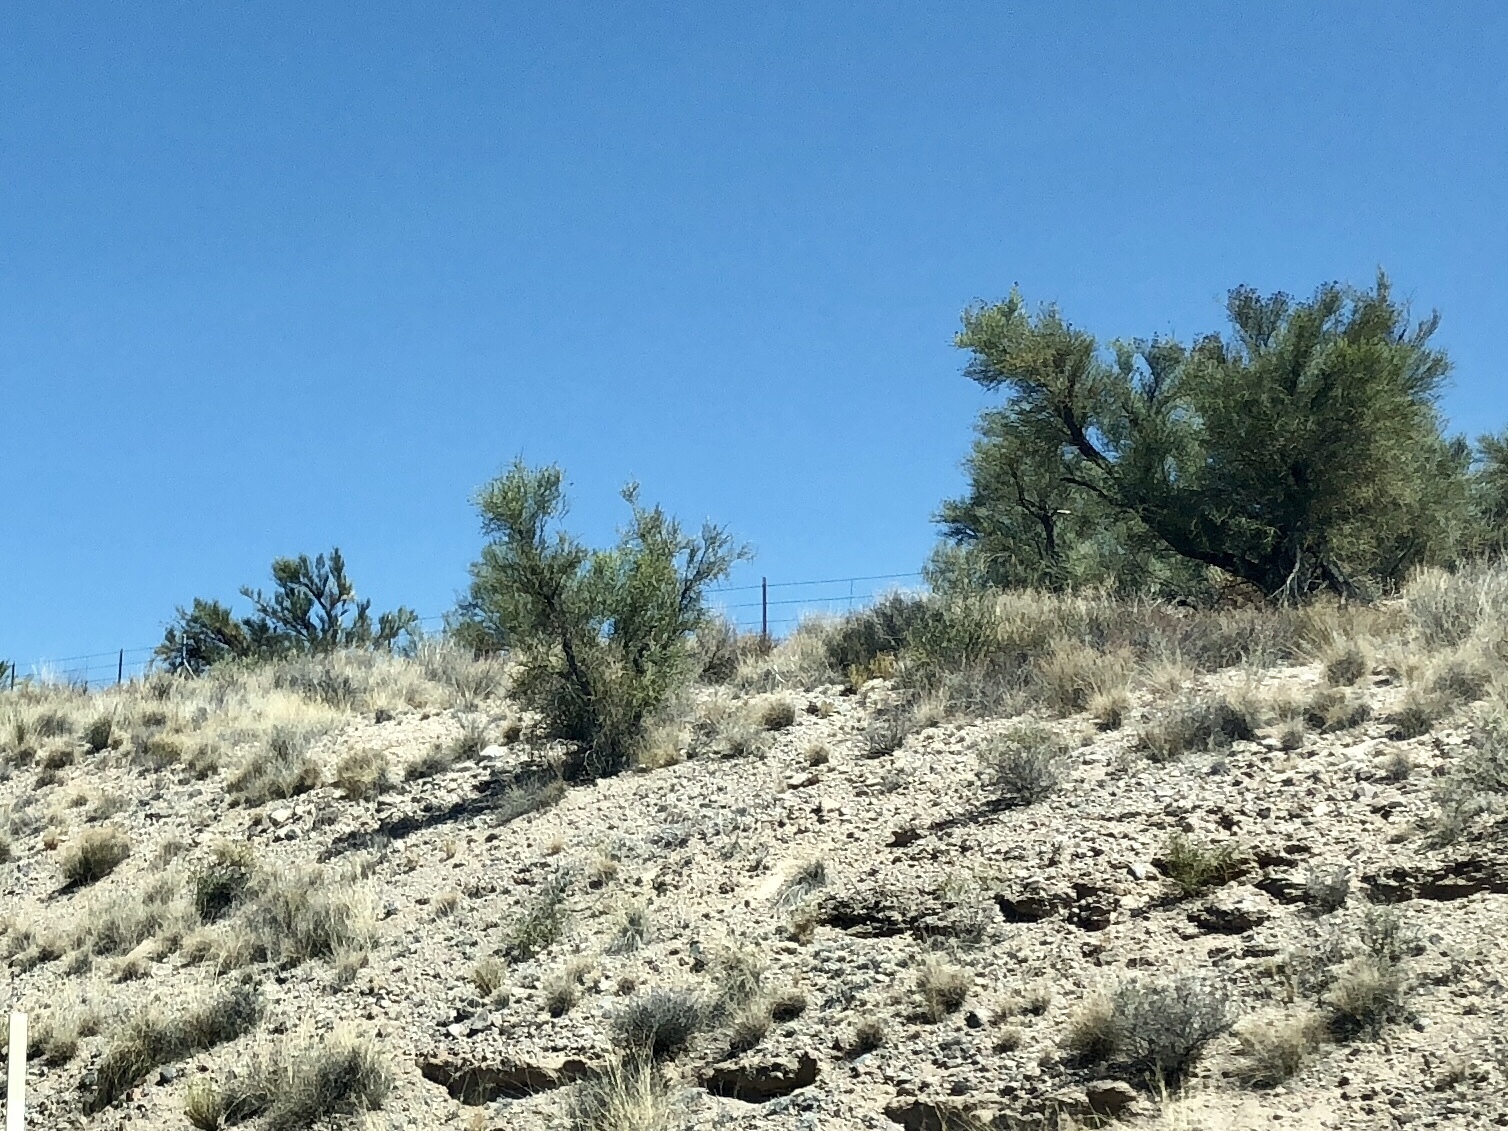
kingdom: Plantae
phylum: Tracheophyta
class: Magnoliopsida
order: Celastrales
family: Celastraceae
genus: Canotia
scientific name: Canotia holacantha
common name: Crucifixion thorns
